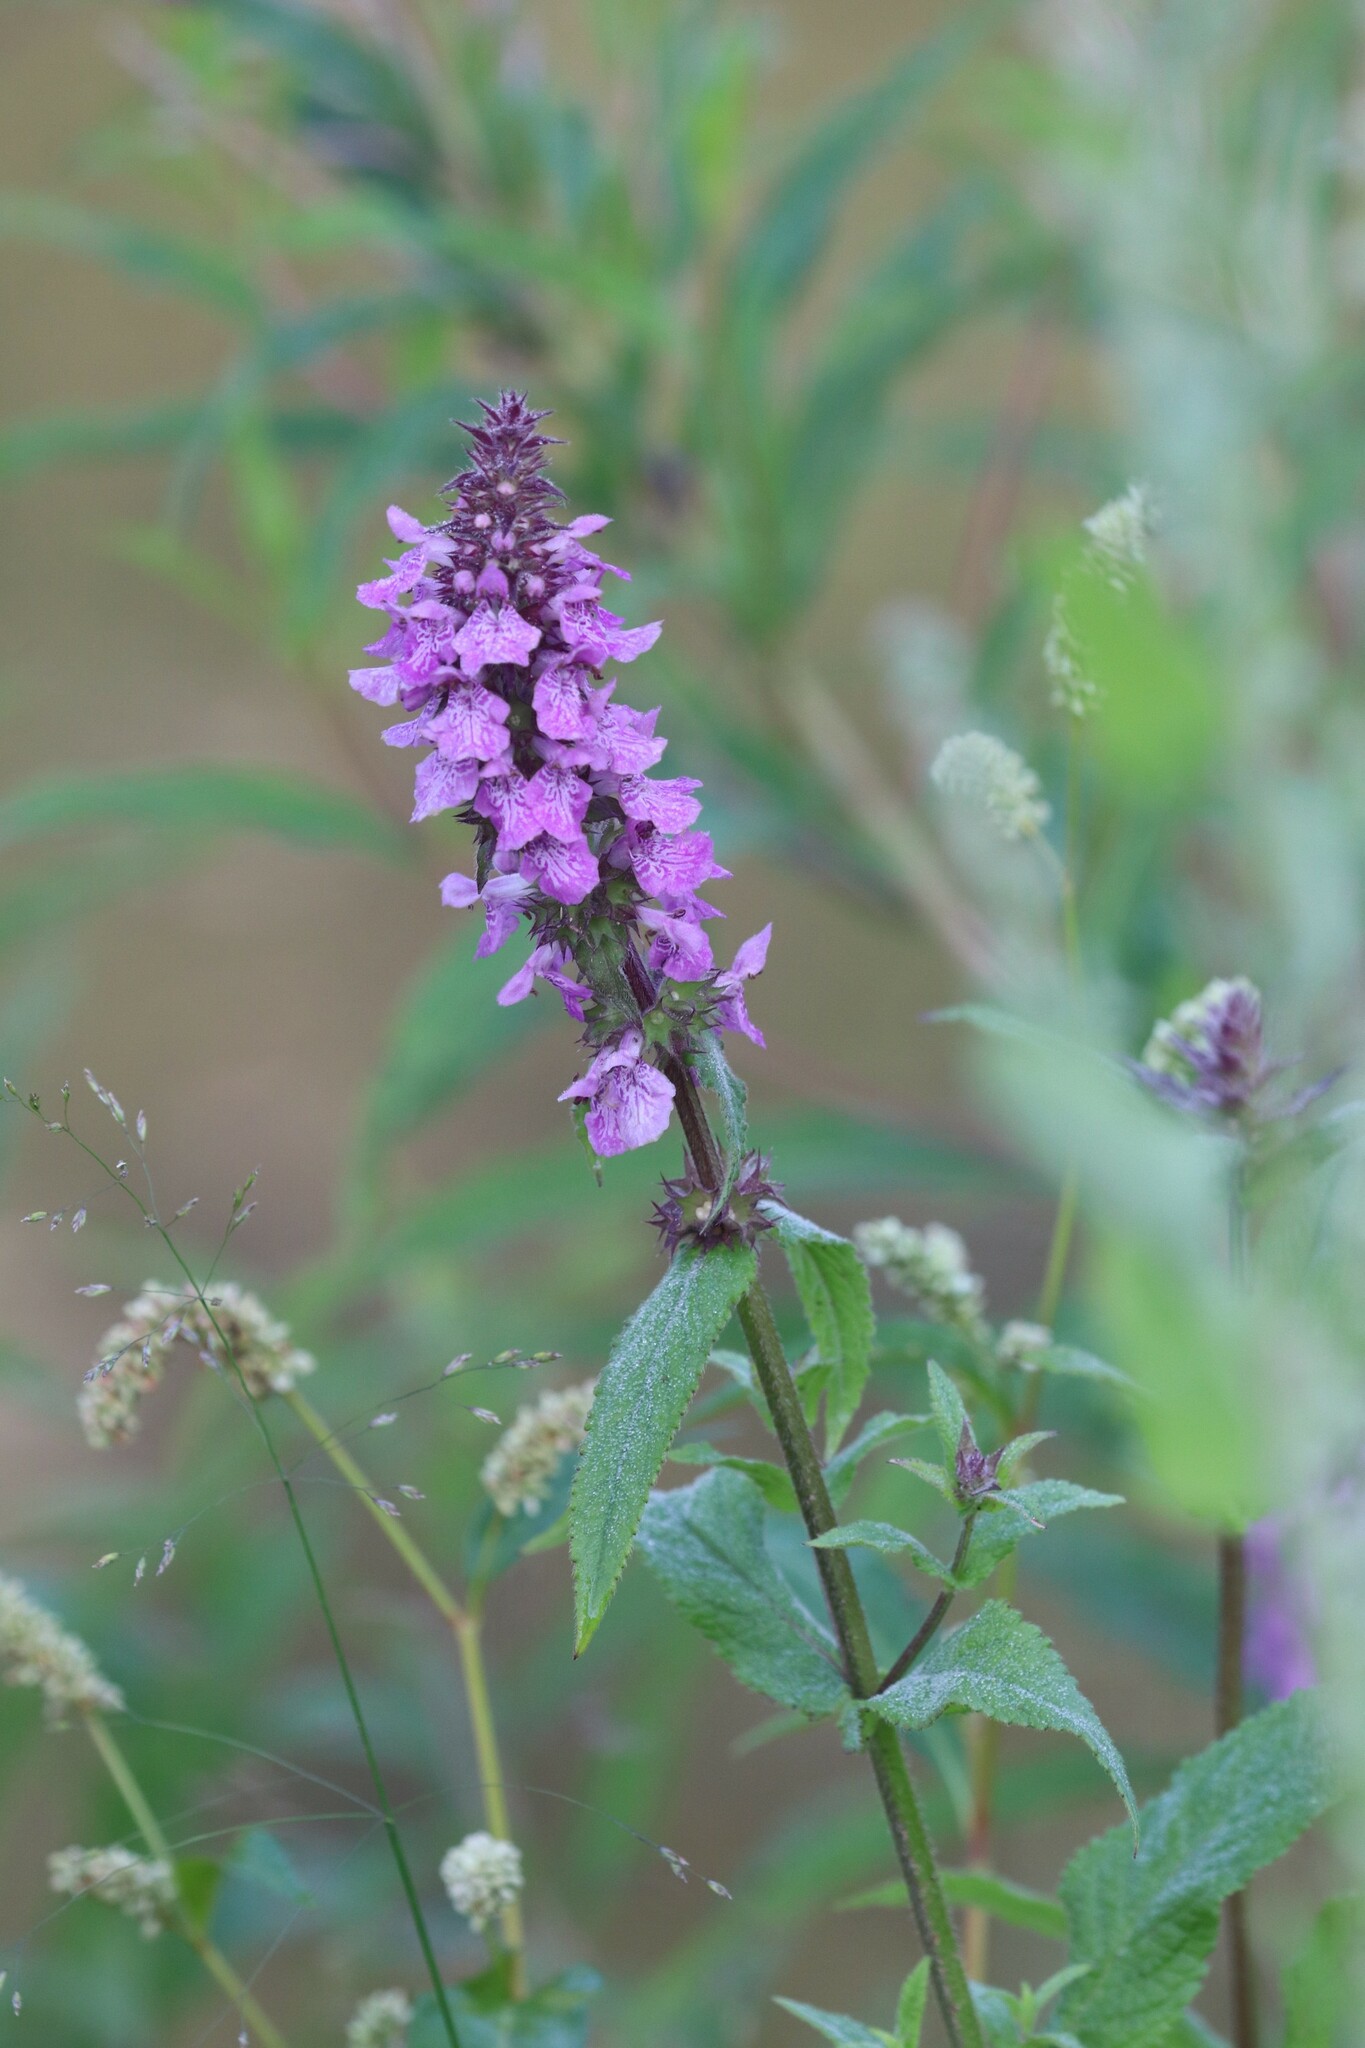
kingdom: Plantae
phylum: Tracheophyta
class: Magnoliopsida
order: Lamiales
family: Lamiaceae
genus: Stachys
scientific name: Stachys palustris
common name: Marsh woundwort
